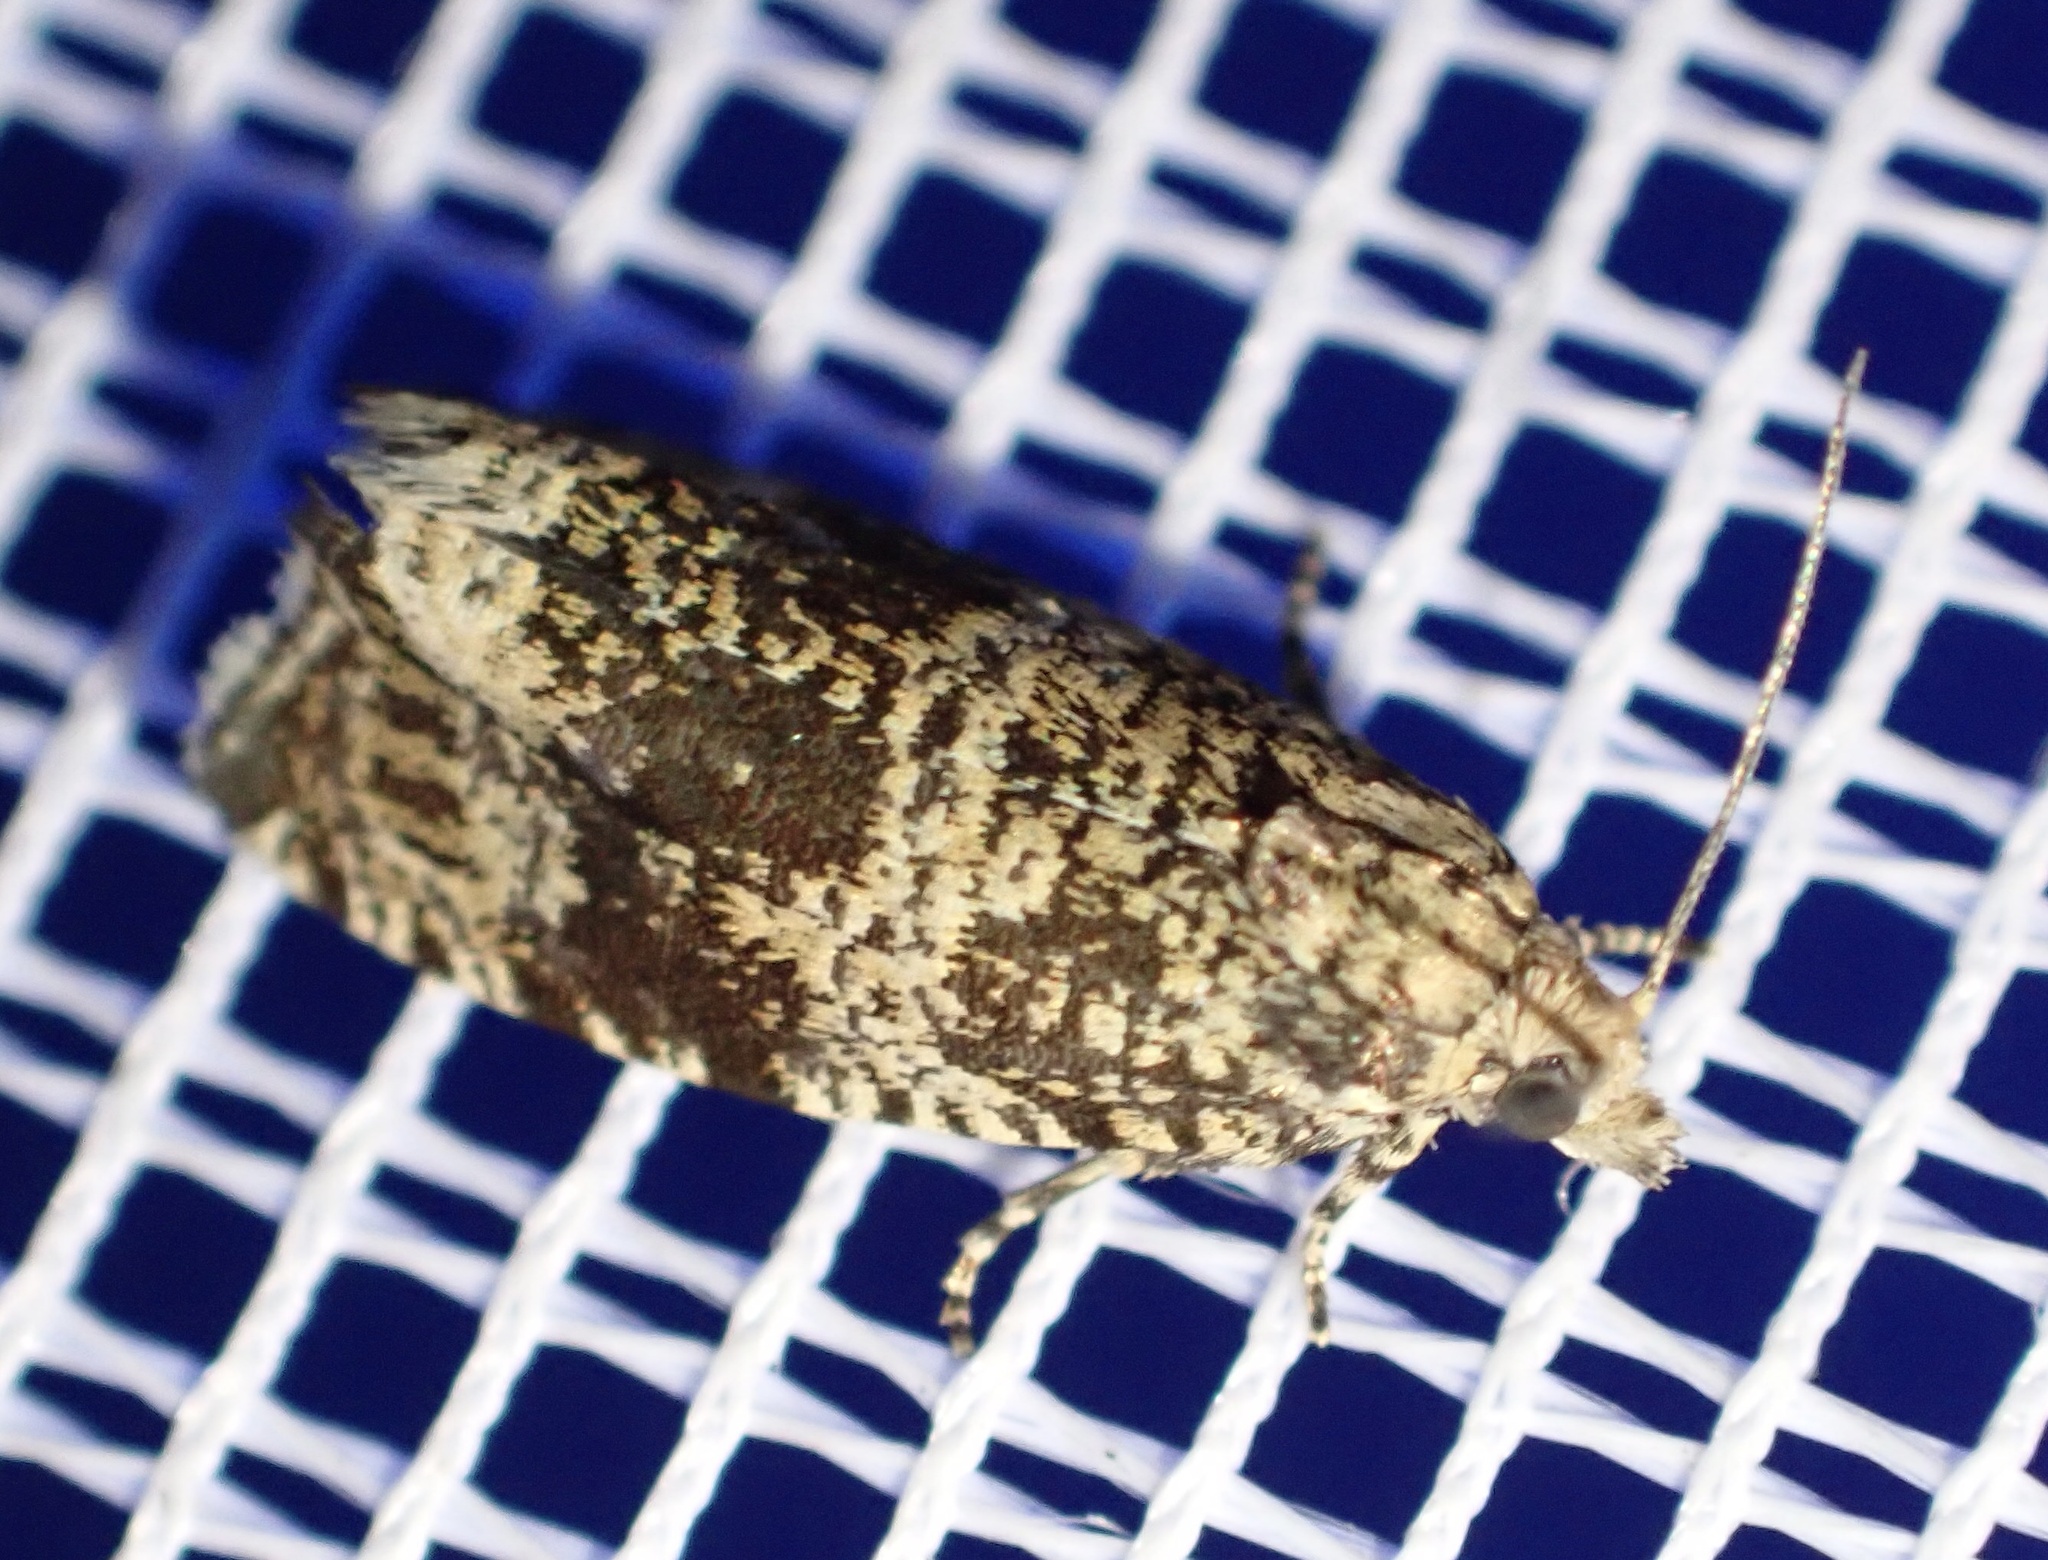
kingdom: Animalia
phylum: Arthropoda
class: Insecta
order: Lepidoptera
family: Tortricidae
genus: Syricoris
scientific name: Syricoris lacunana
